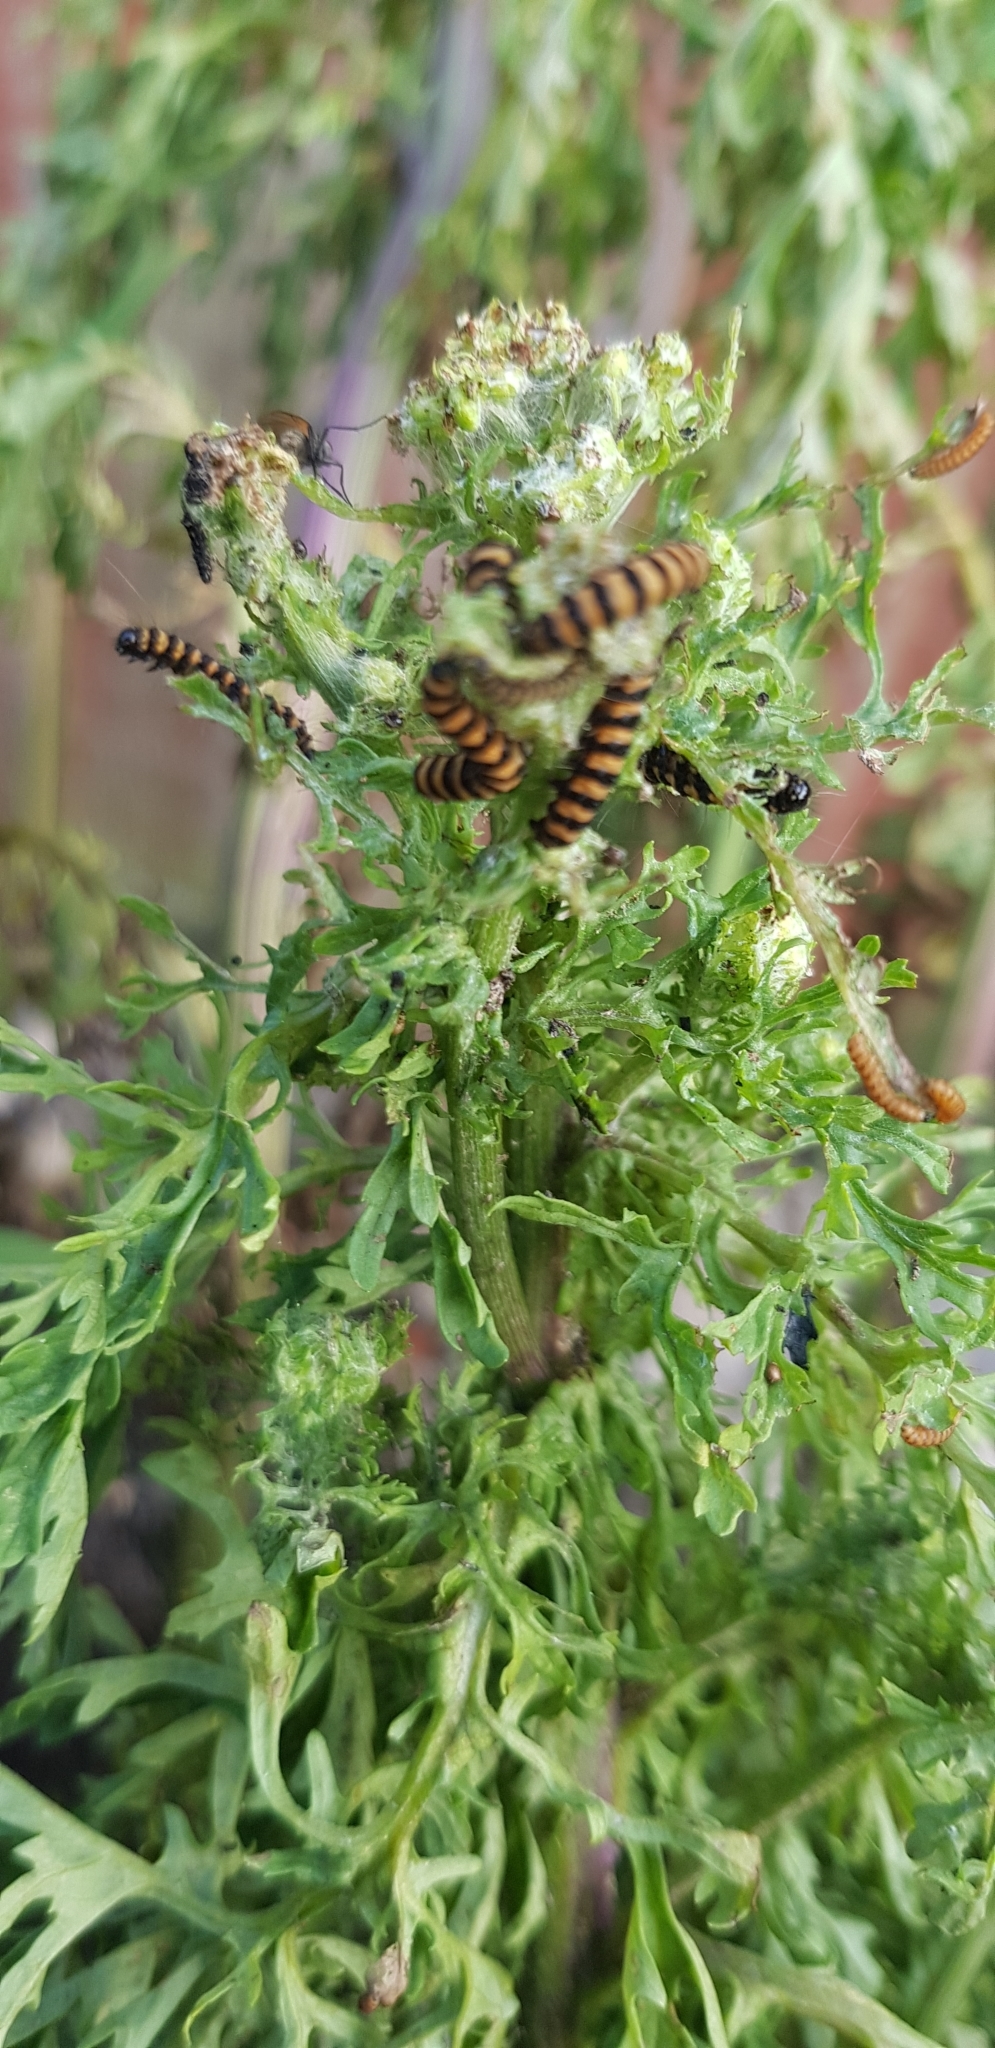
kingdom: Animalia
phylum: Arthropoda
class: Insecta
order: Lepidoptera
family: Erebidae
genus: Tyria
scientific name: Tyria jacobaeae
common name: Cinnabar
